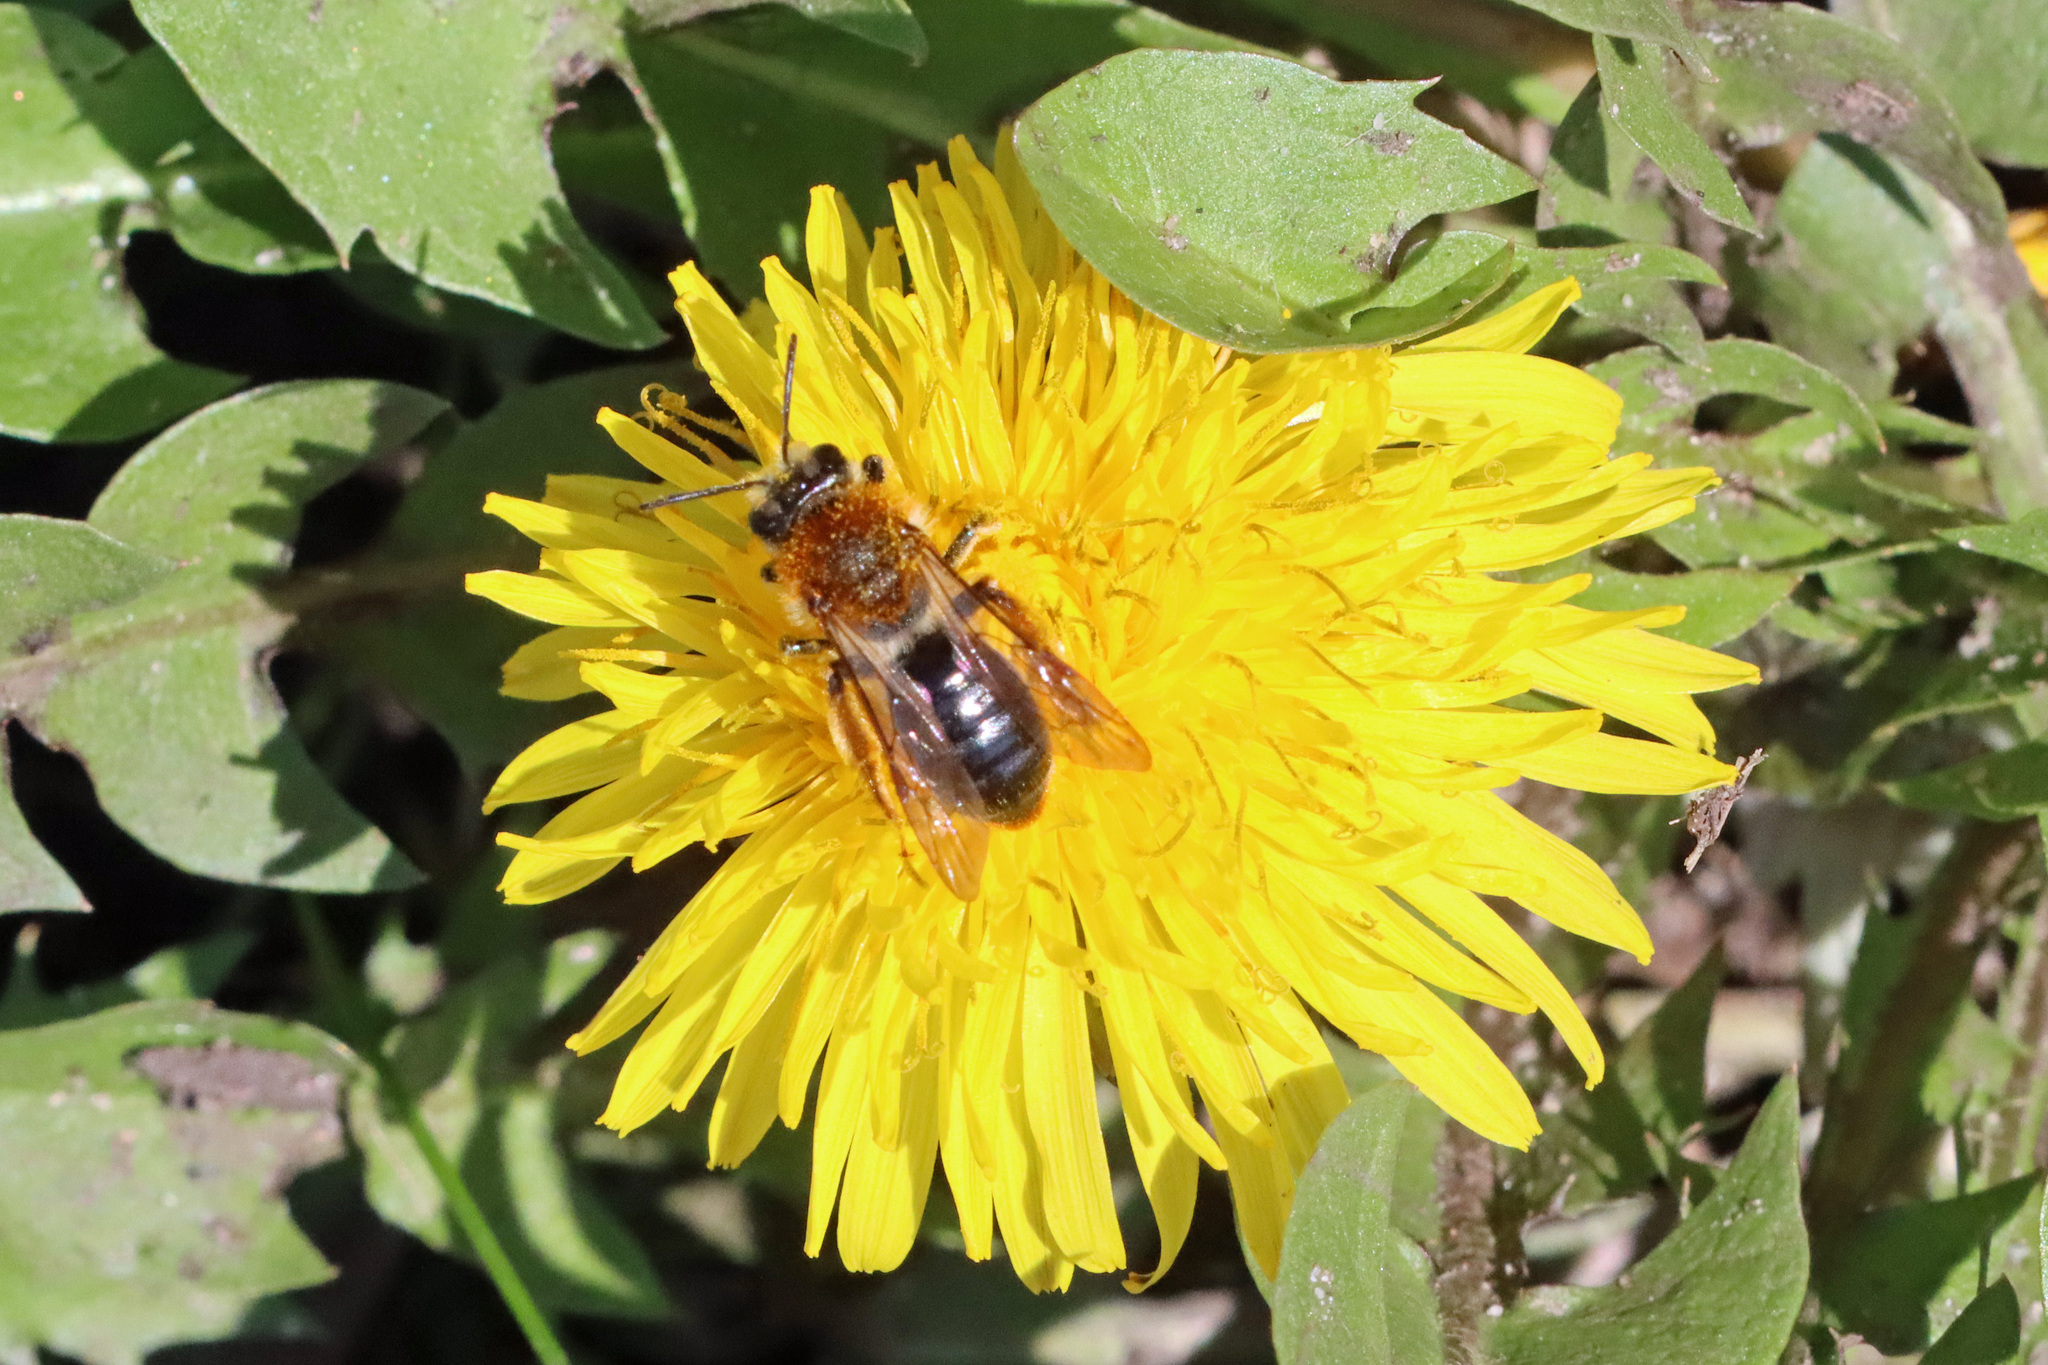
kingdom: Animalia
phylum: Arthropoda
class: Insecta
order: Hymenoptera
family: Andrenidae
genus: Andrena
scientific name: Andrena haemorrhoa
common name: Early mining bee
